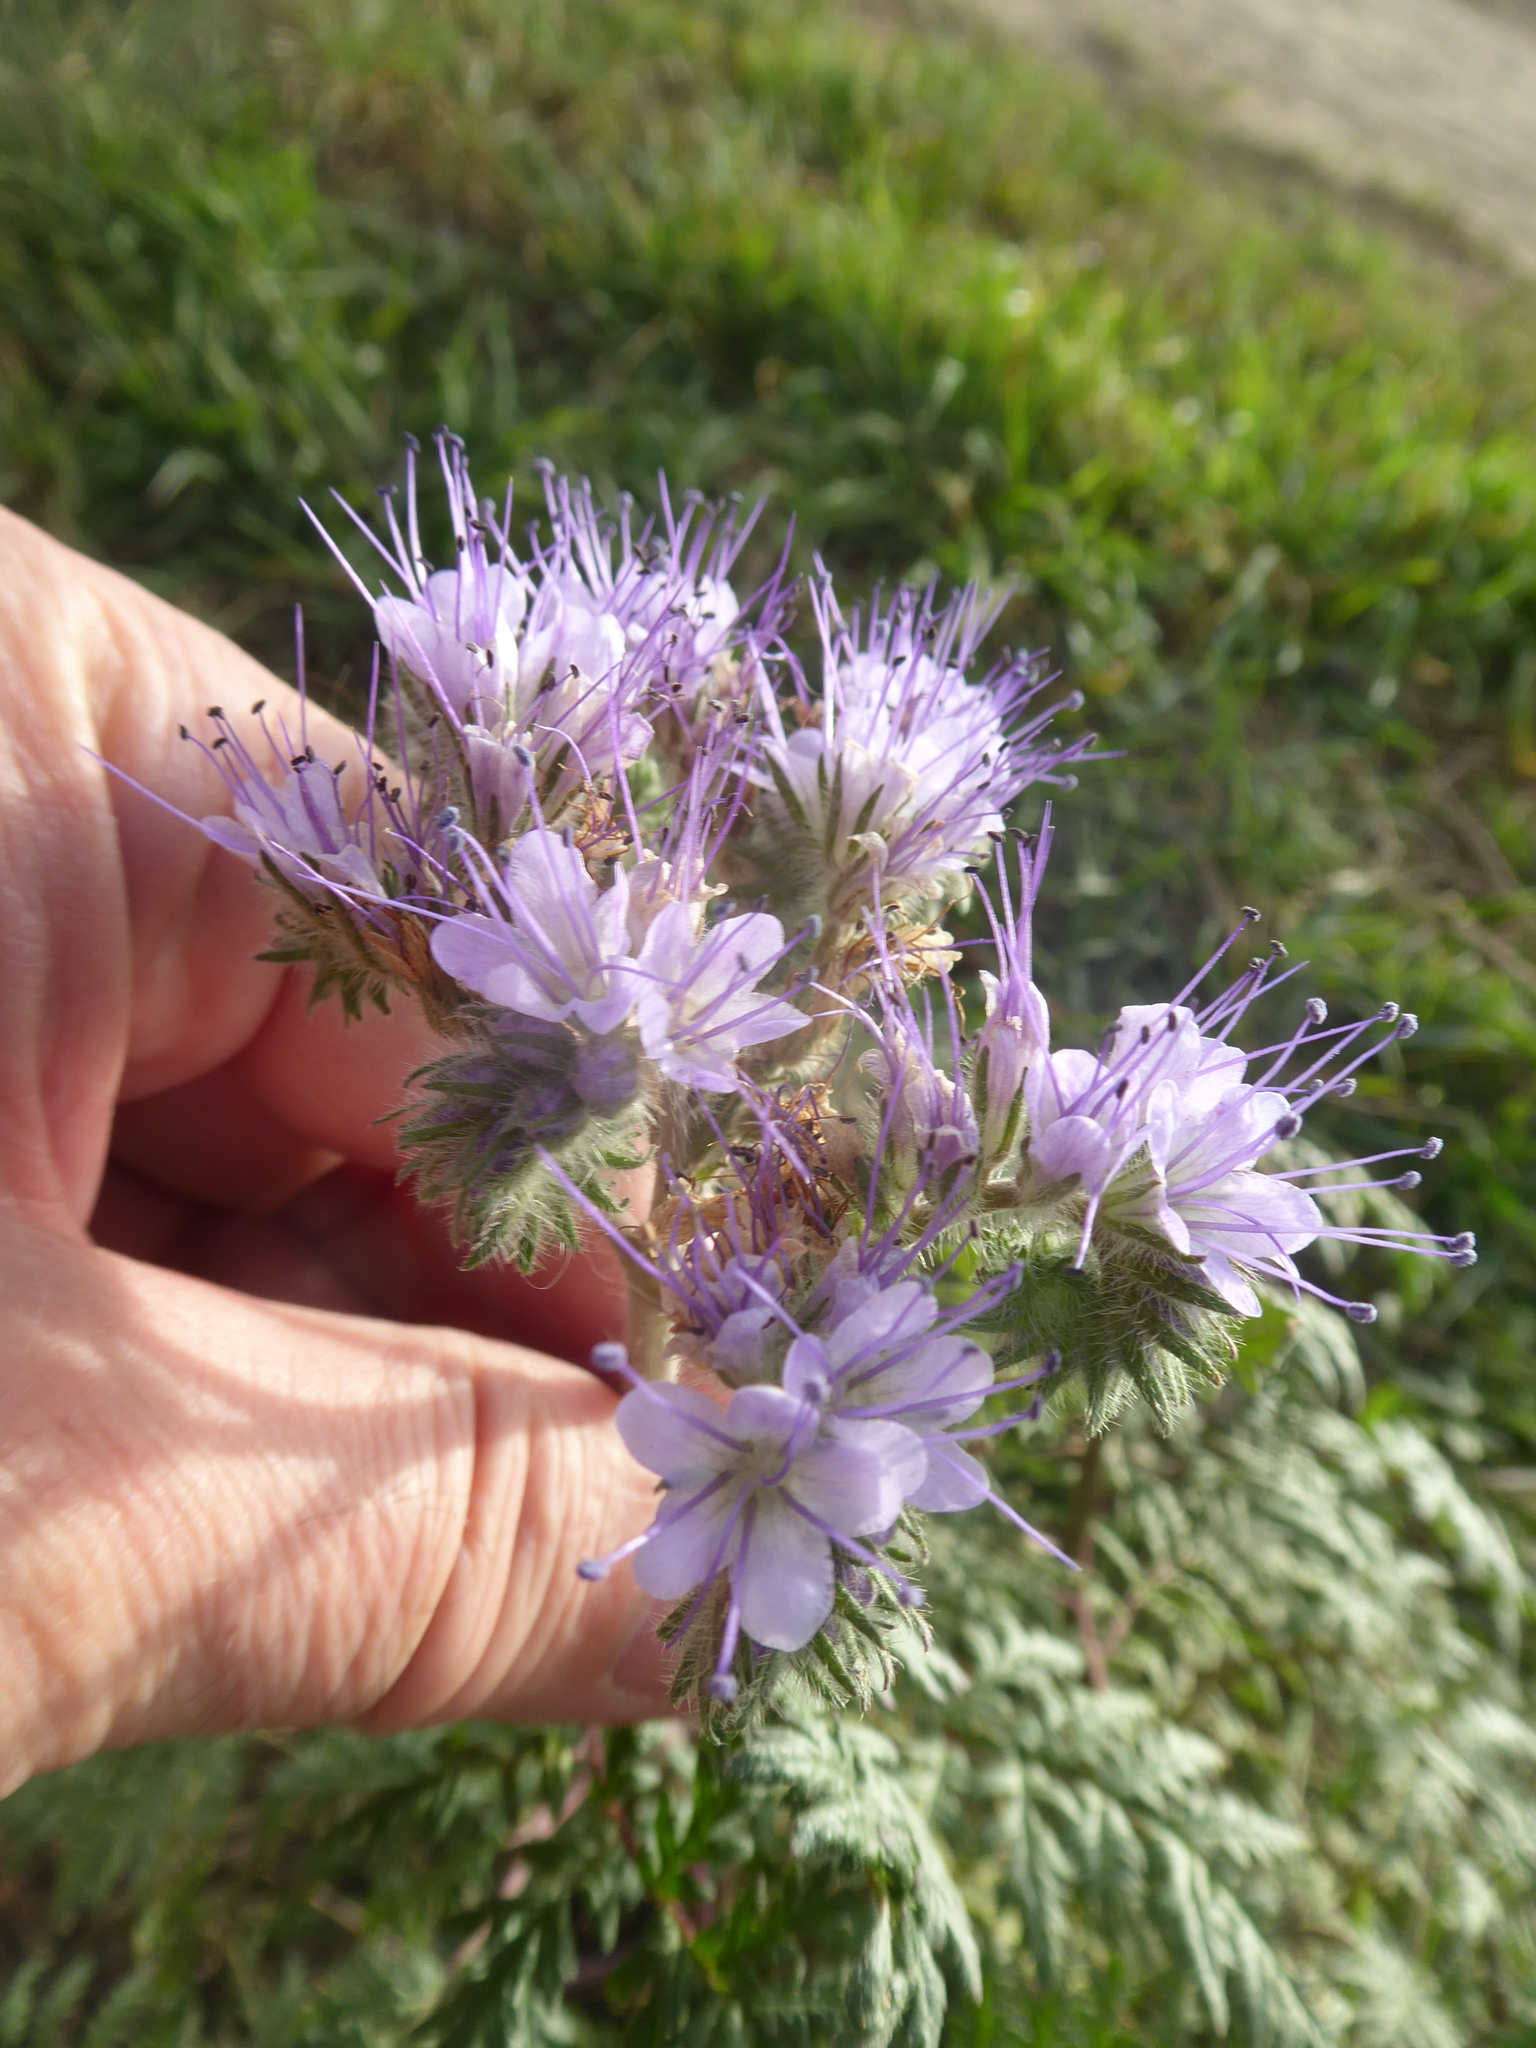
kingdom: Plantae
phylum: Tracheophyta
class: Magnoliopsida
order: Boraginales
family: Hydrophyllaceae
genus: Phacelia
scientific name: Phacelia tanacetifolia
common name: Phacelia
